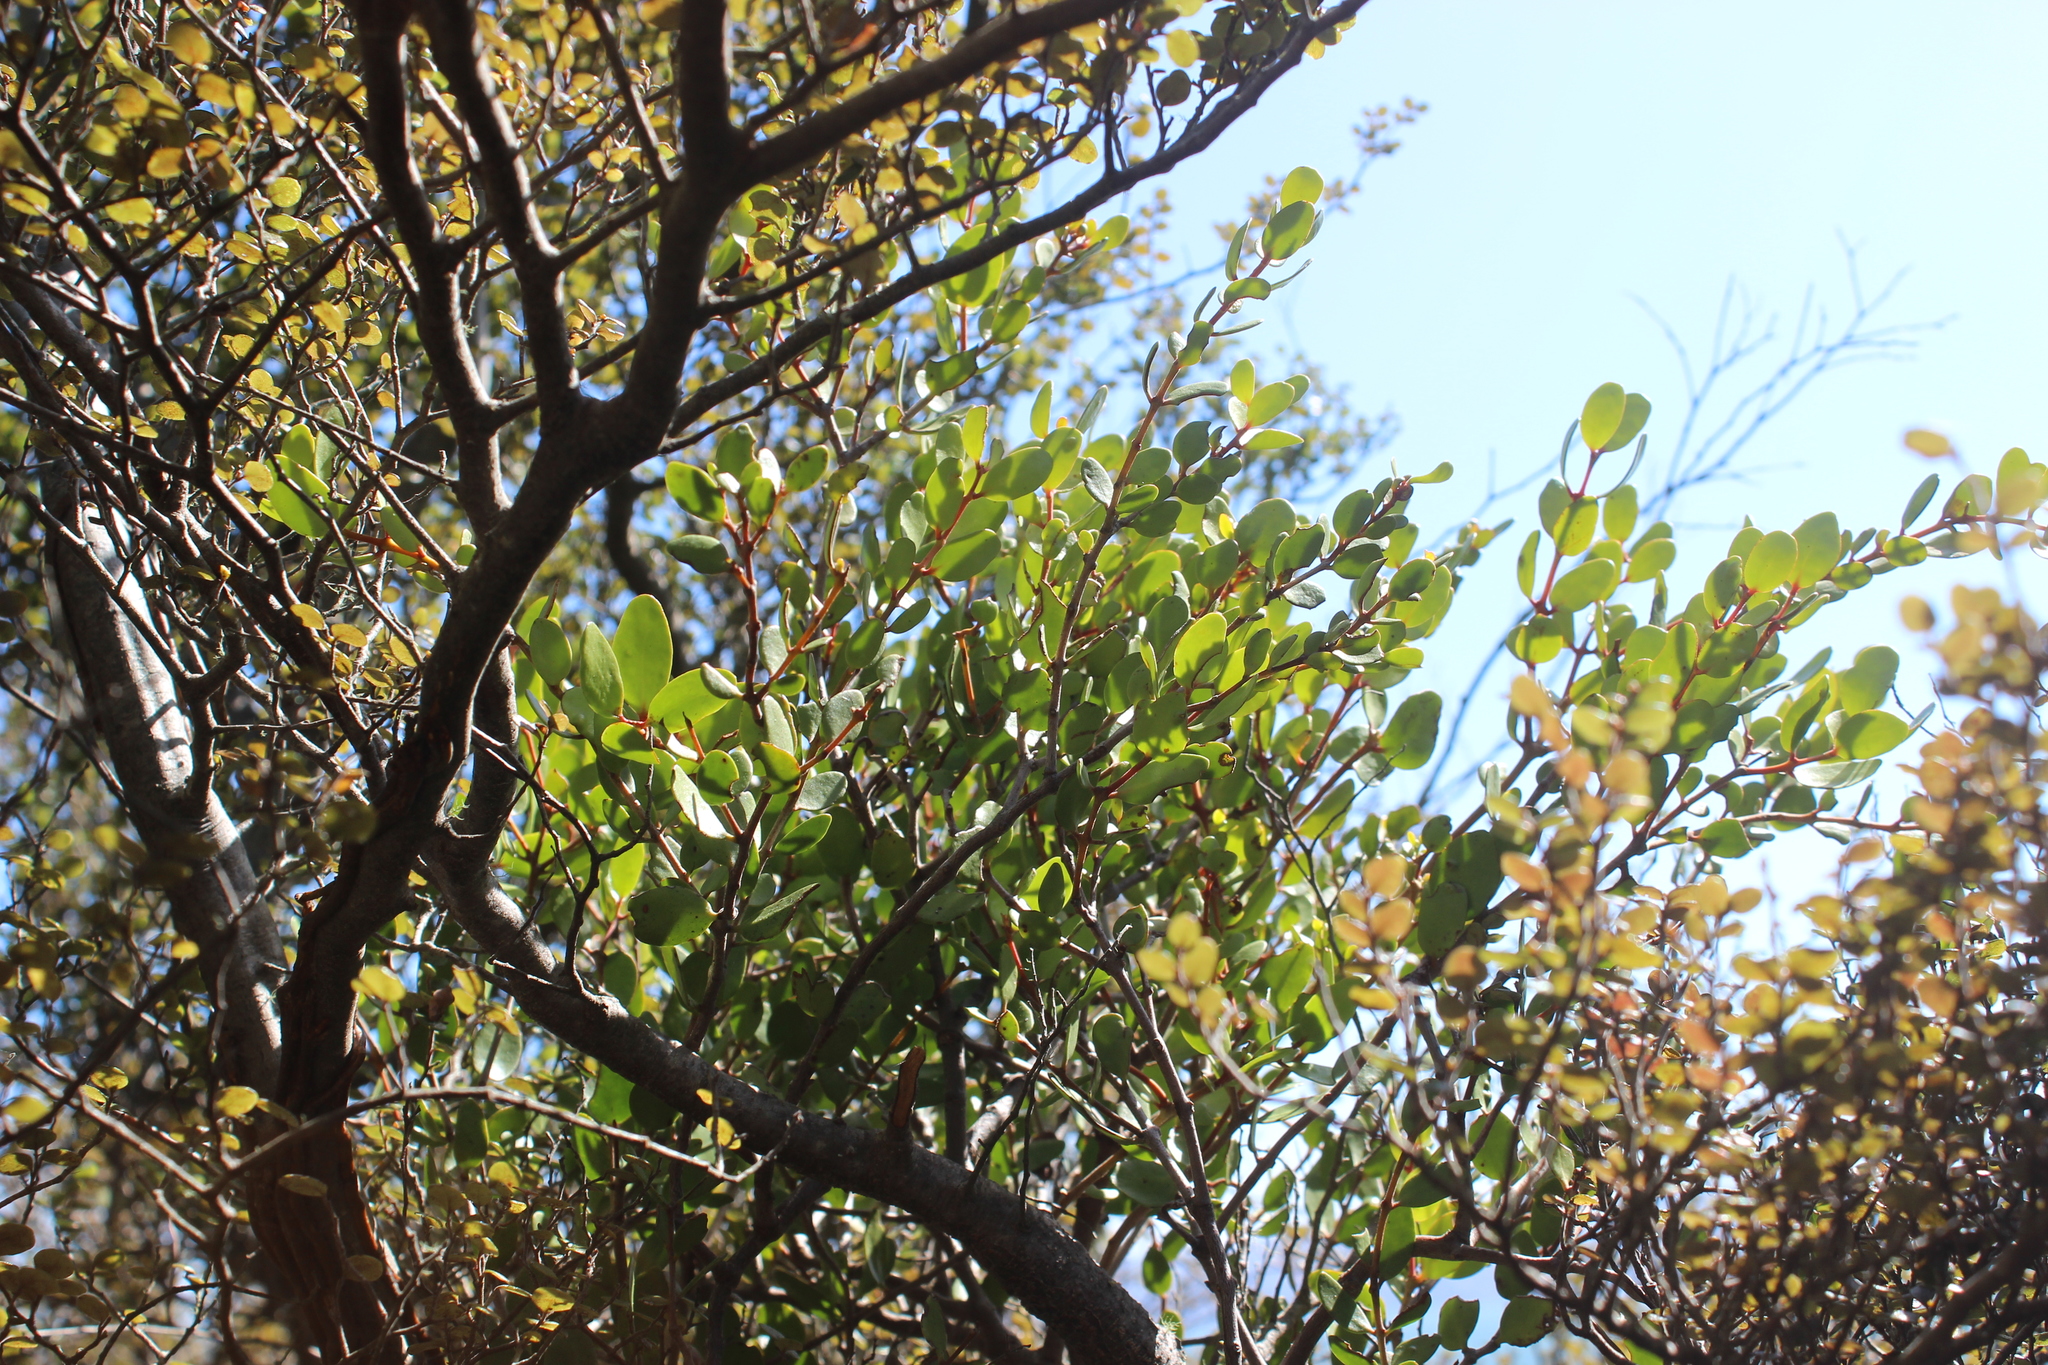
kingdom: Plantae
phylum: Tracheophyta
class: Magnoliopsida
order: Santalales
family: Loranthaceae
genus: Peraxilla
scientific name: Peraxilla tetrapetala
